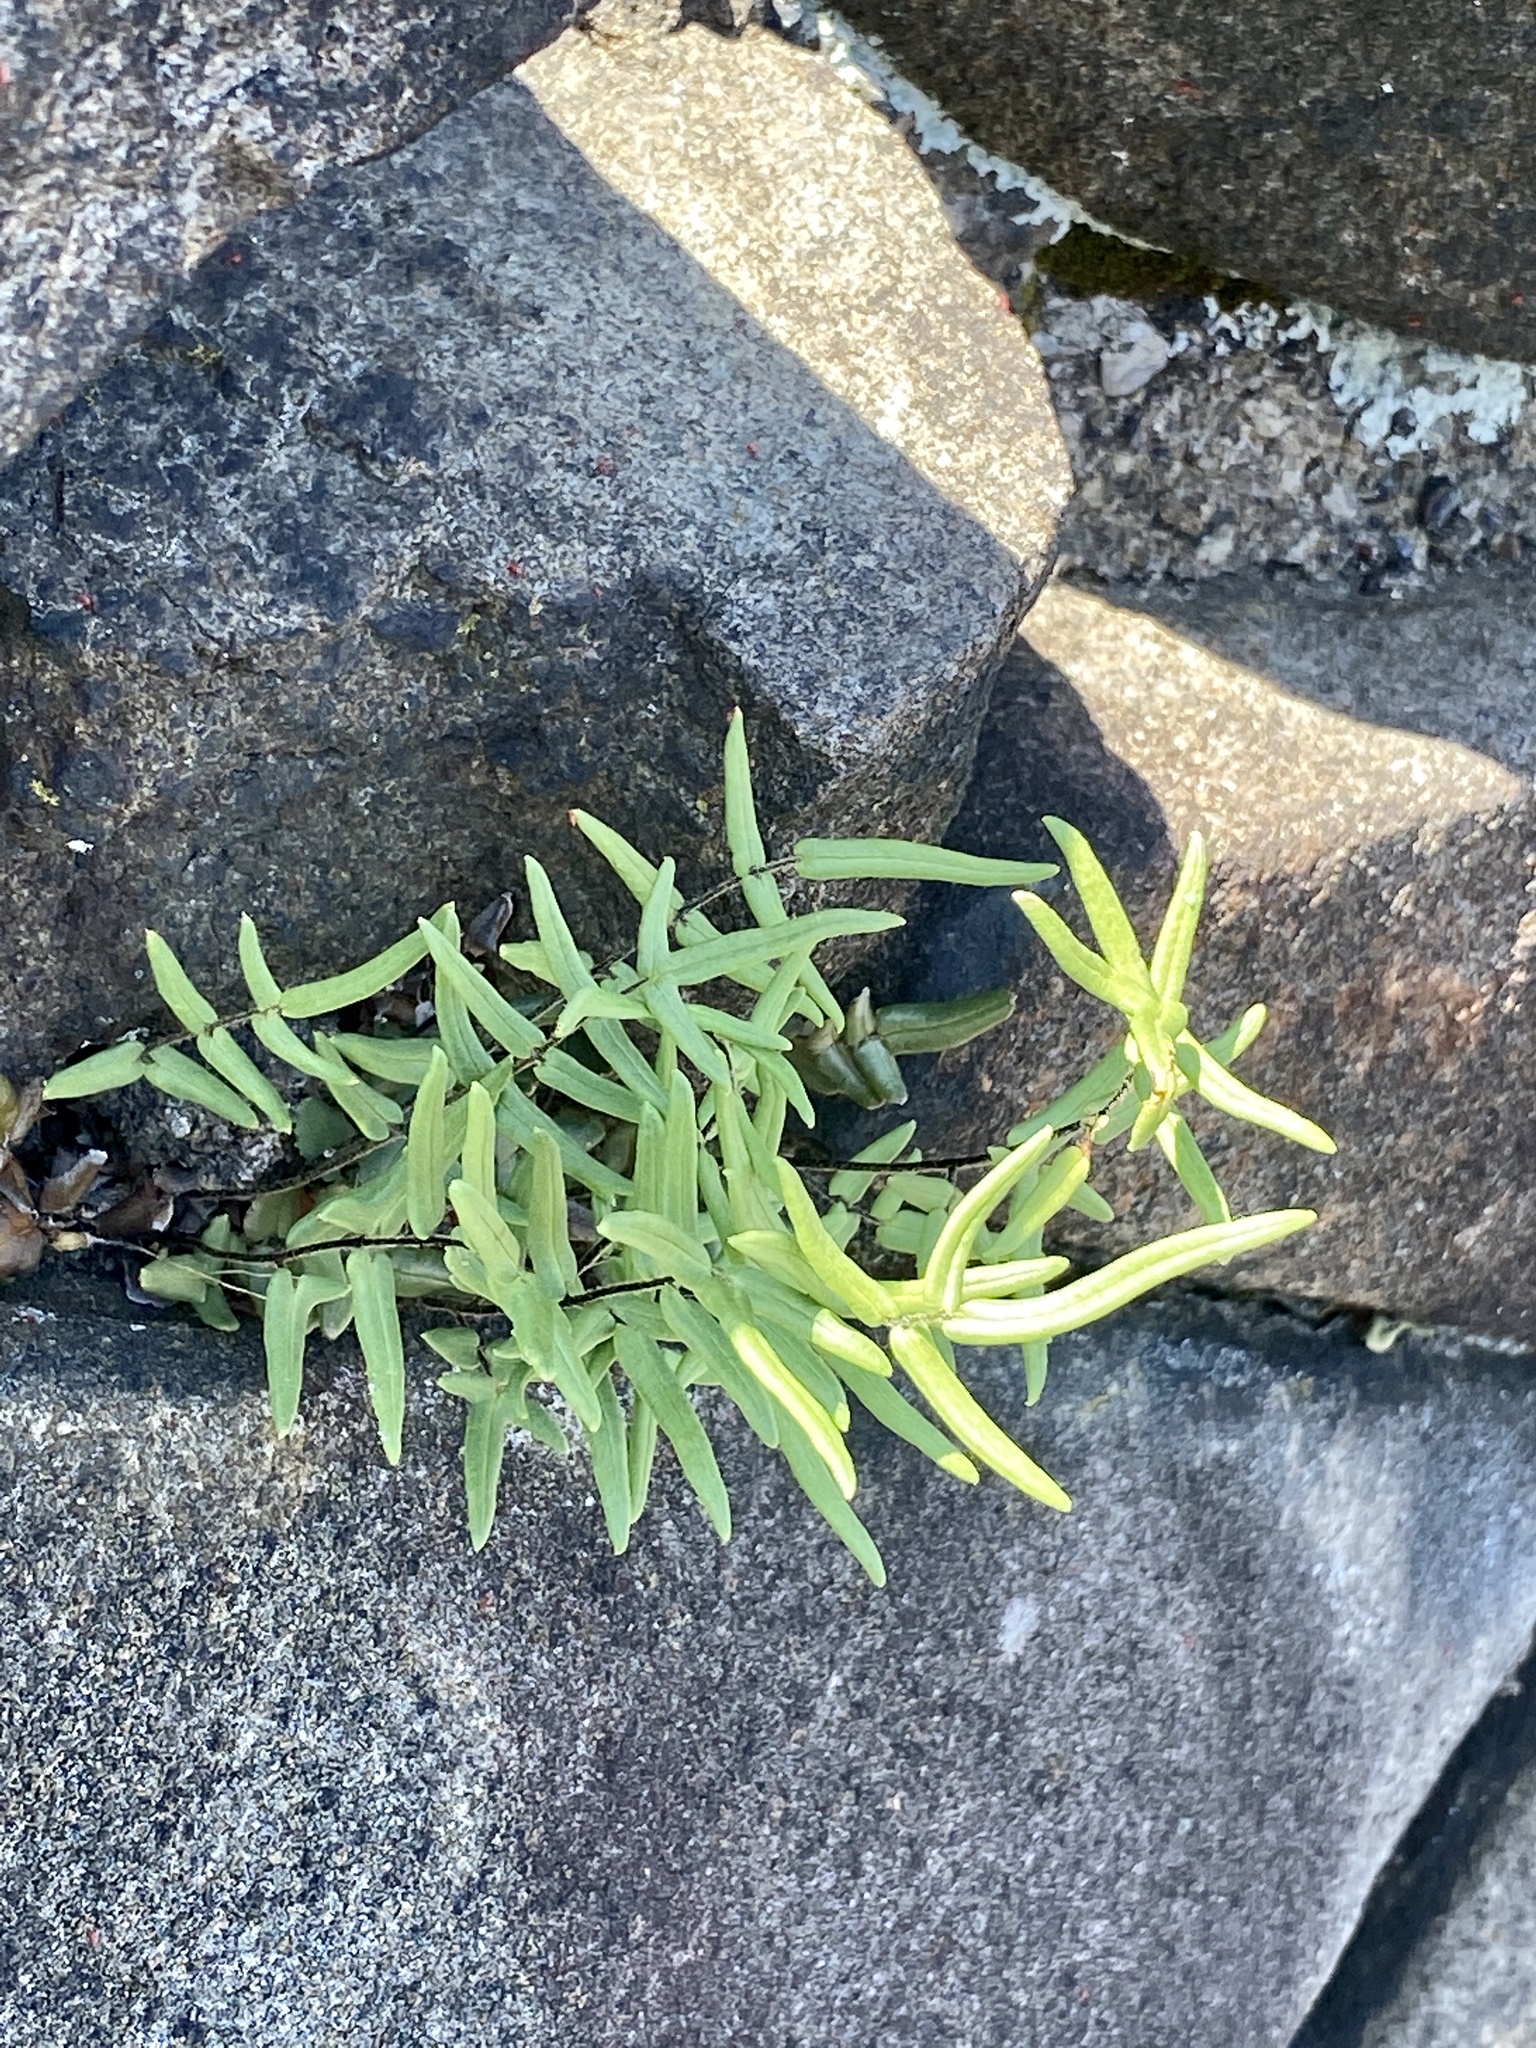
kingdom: Plantae
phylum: Tracheophyta
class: Polypodiopsida
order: Polypodiales
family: Pteridaceae
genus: Pellaea
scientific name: Pellaea atropurpurea
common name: Hairy cliffbrake
